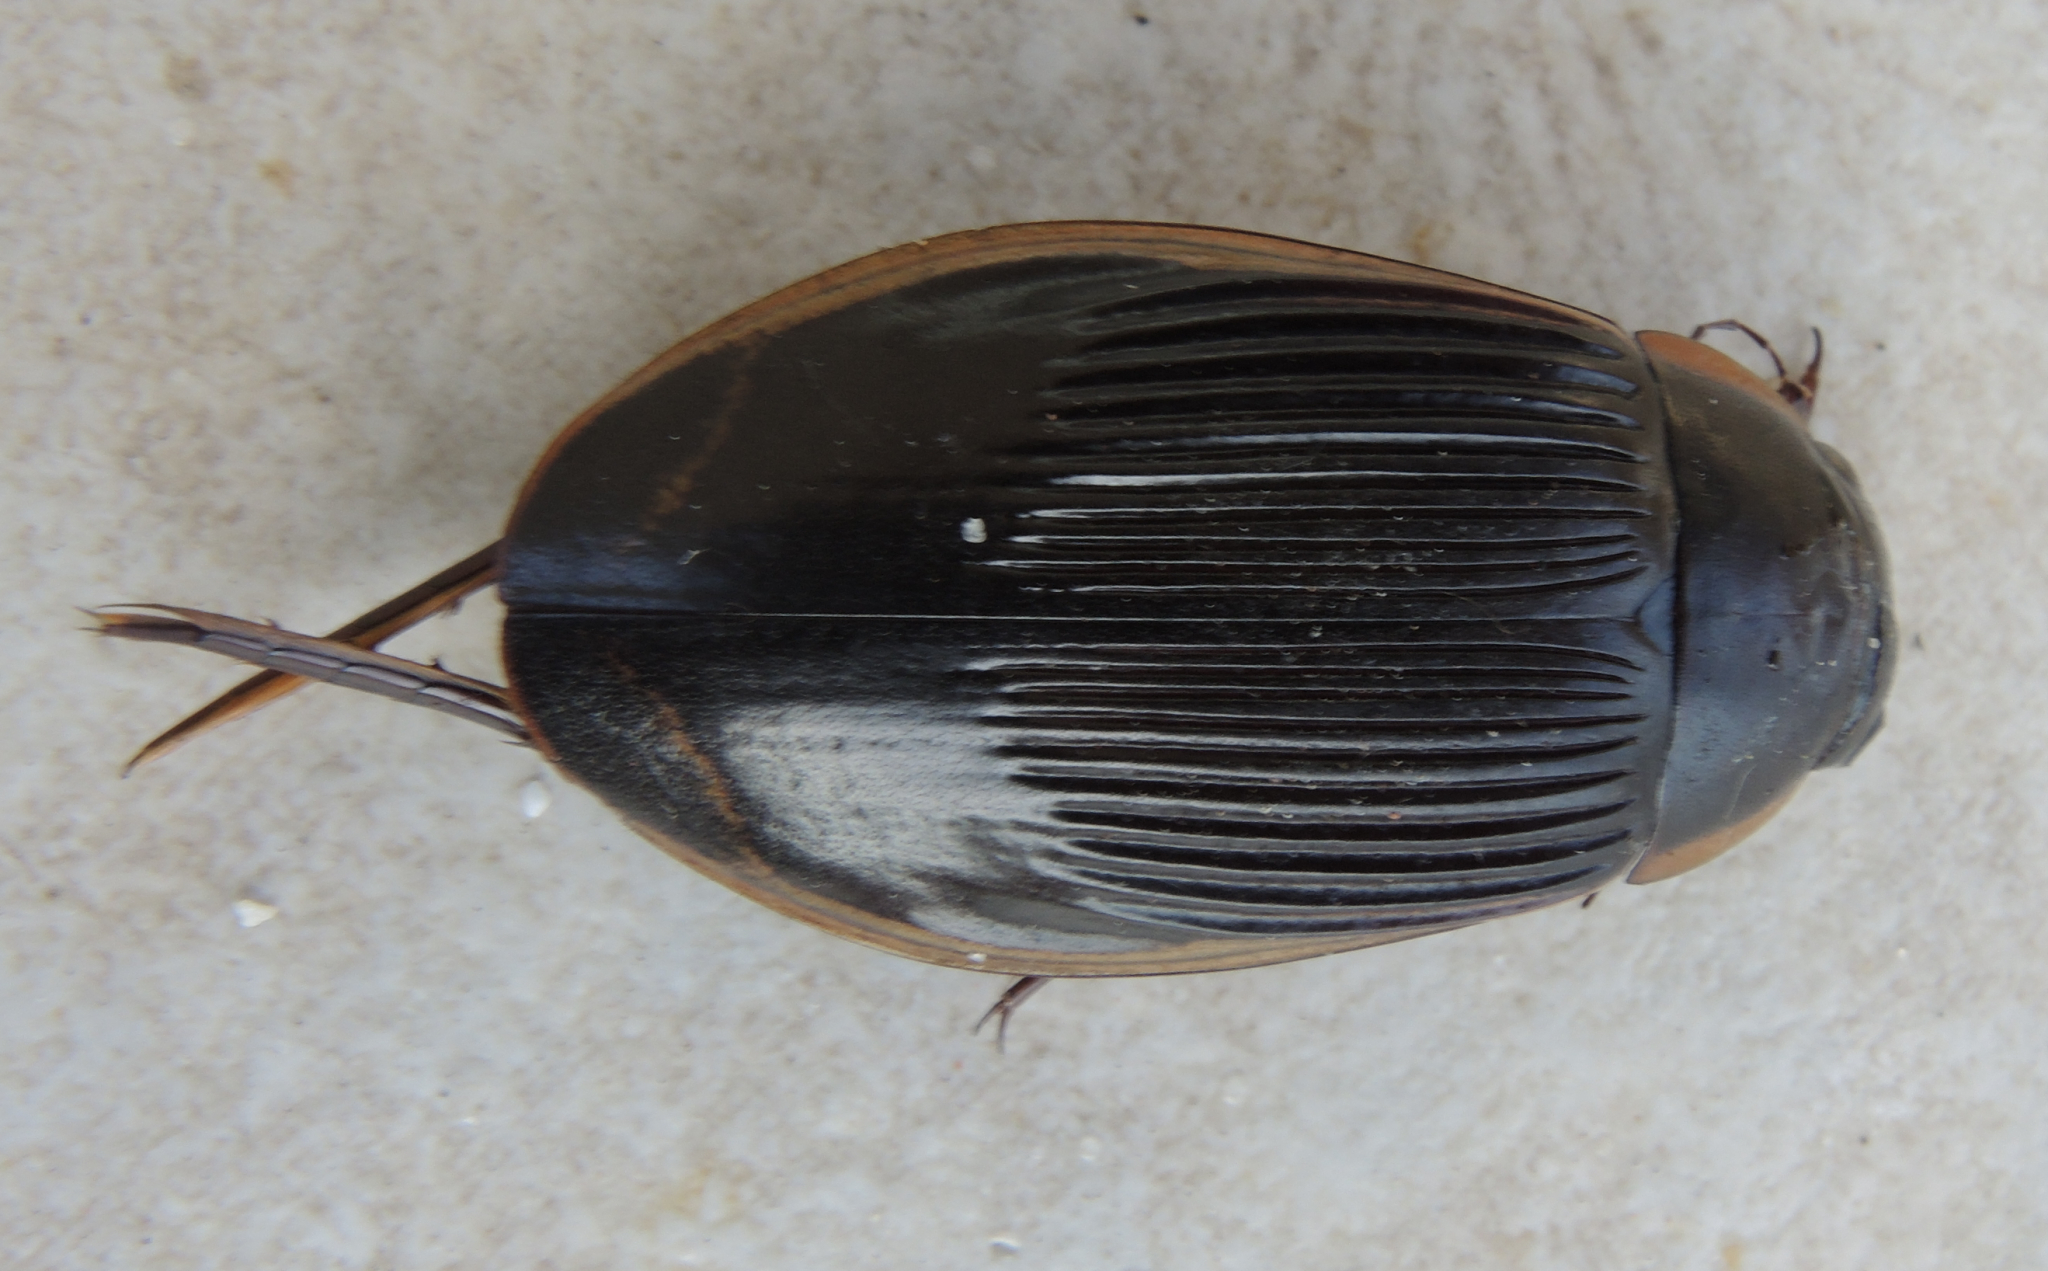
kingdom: Animalia
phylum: Arthropoda
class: Insecta
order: Coleoptera
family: Dytiscidae
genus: Dytiscus
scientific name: Dytiscus dimidiatus
